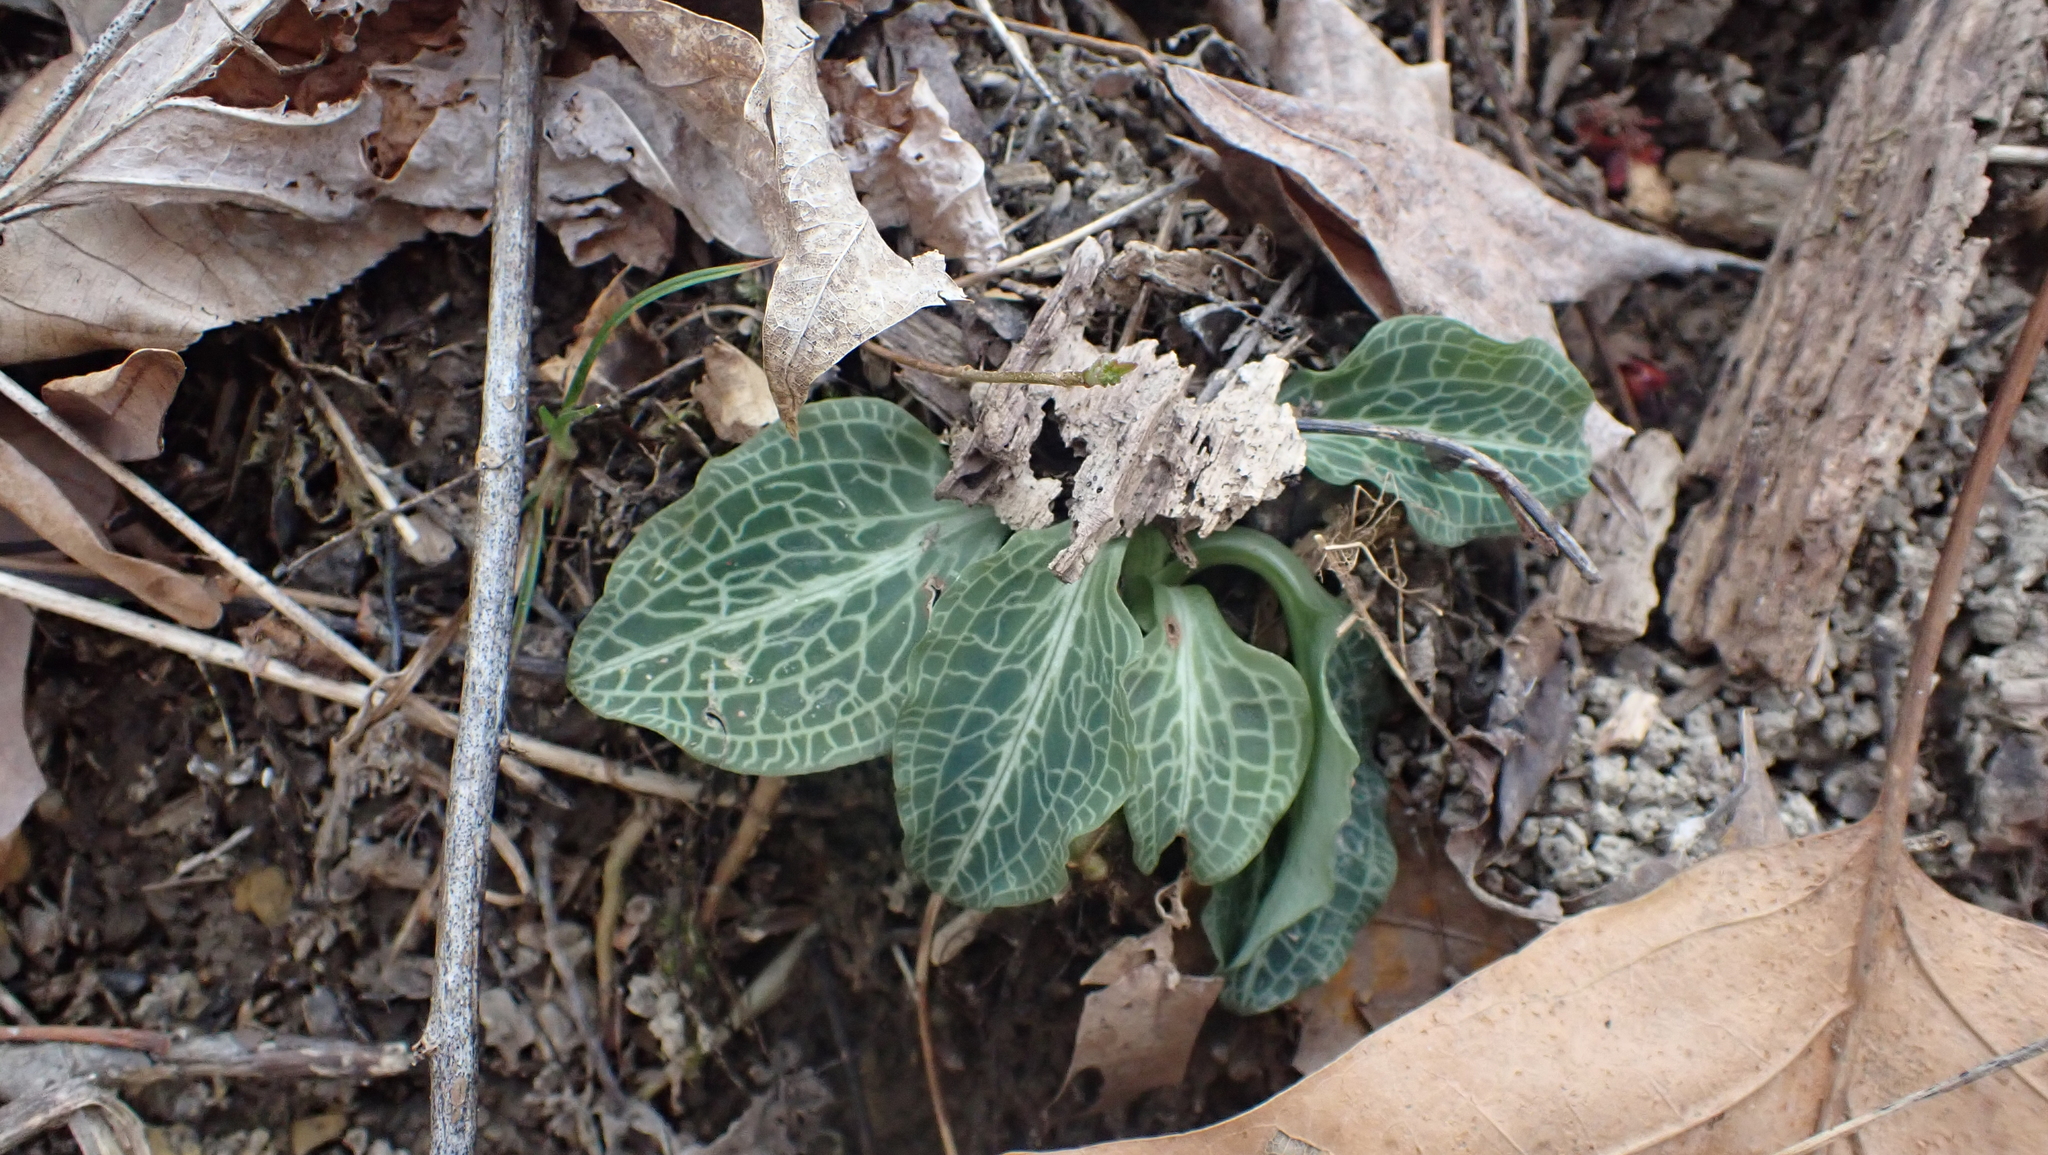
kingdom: Plantae
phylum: Tracheophyta
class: Liliopsida
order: Asparagales
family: Orchidaceae
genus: Goodyera
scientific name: Goodyera pubescens
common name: Downy rattlesnake-plantain
